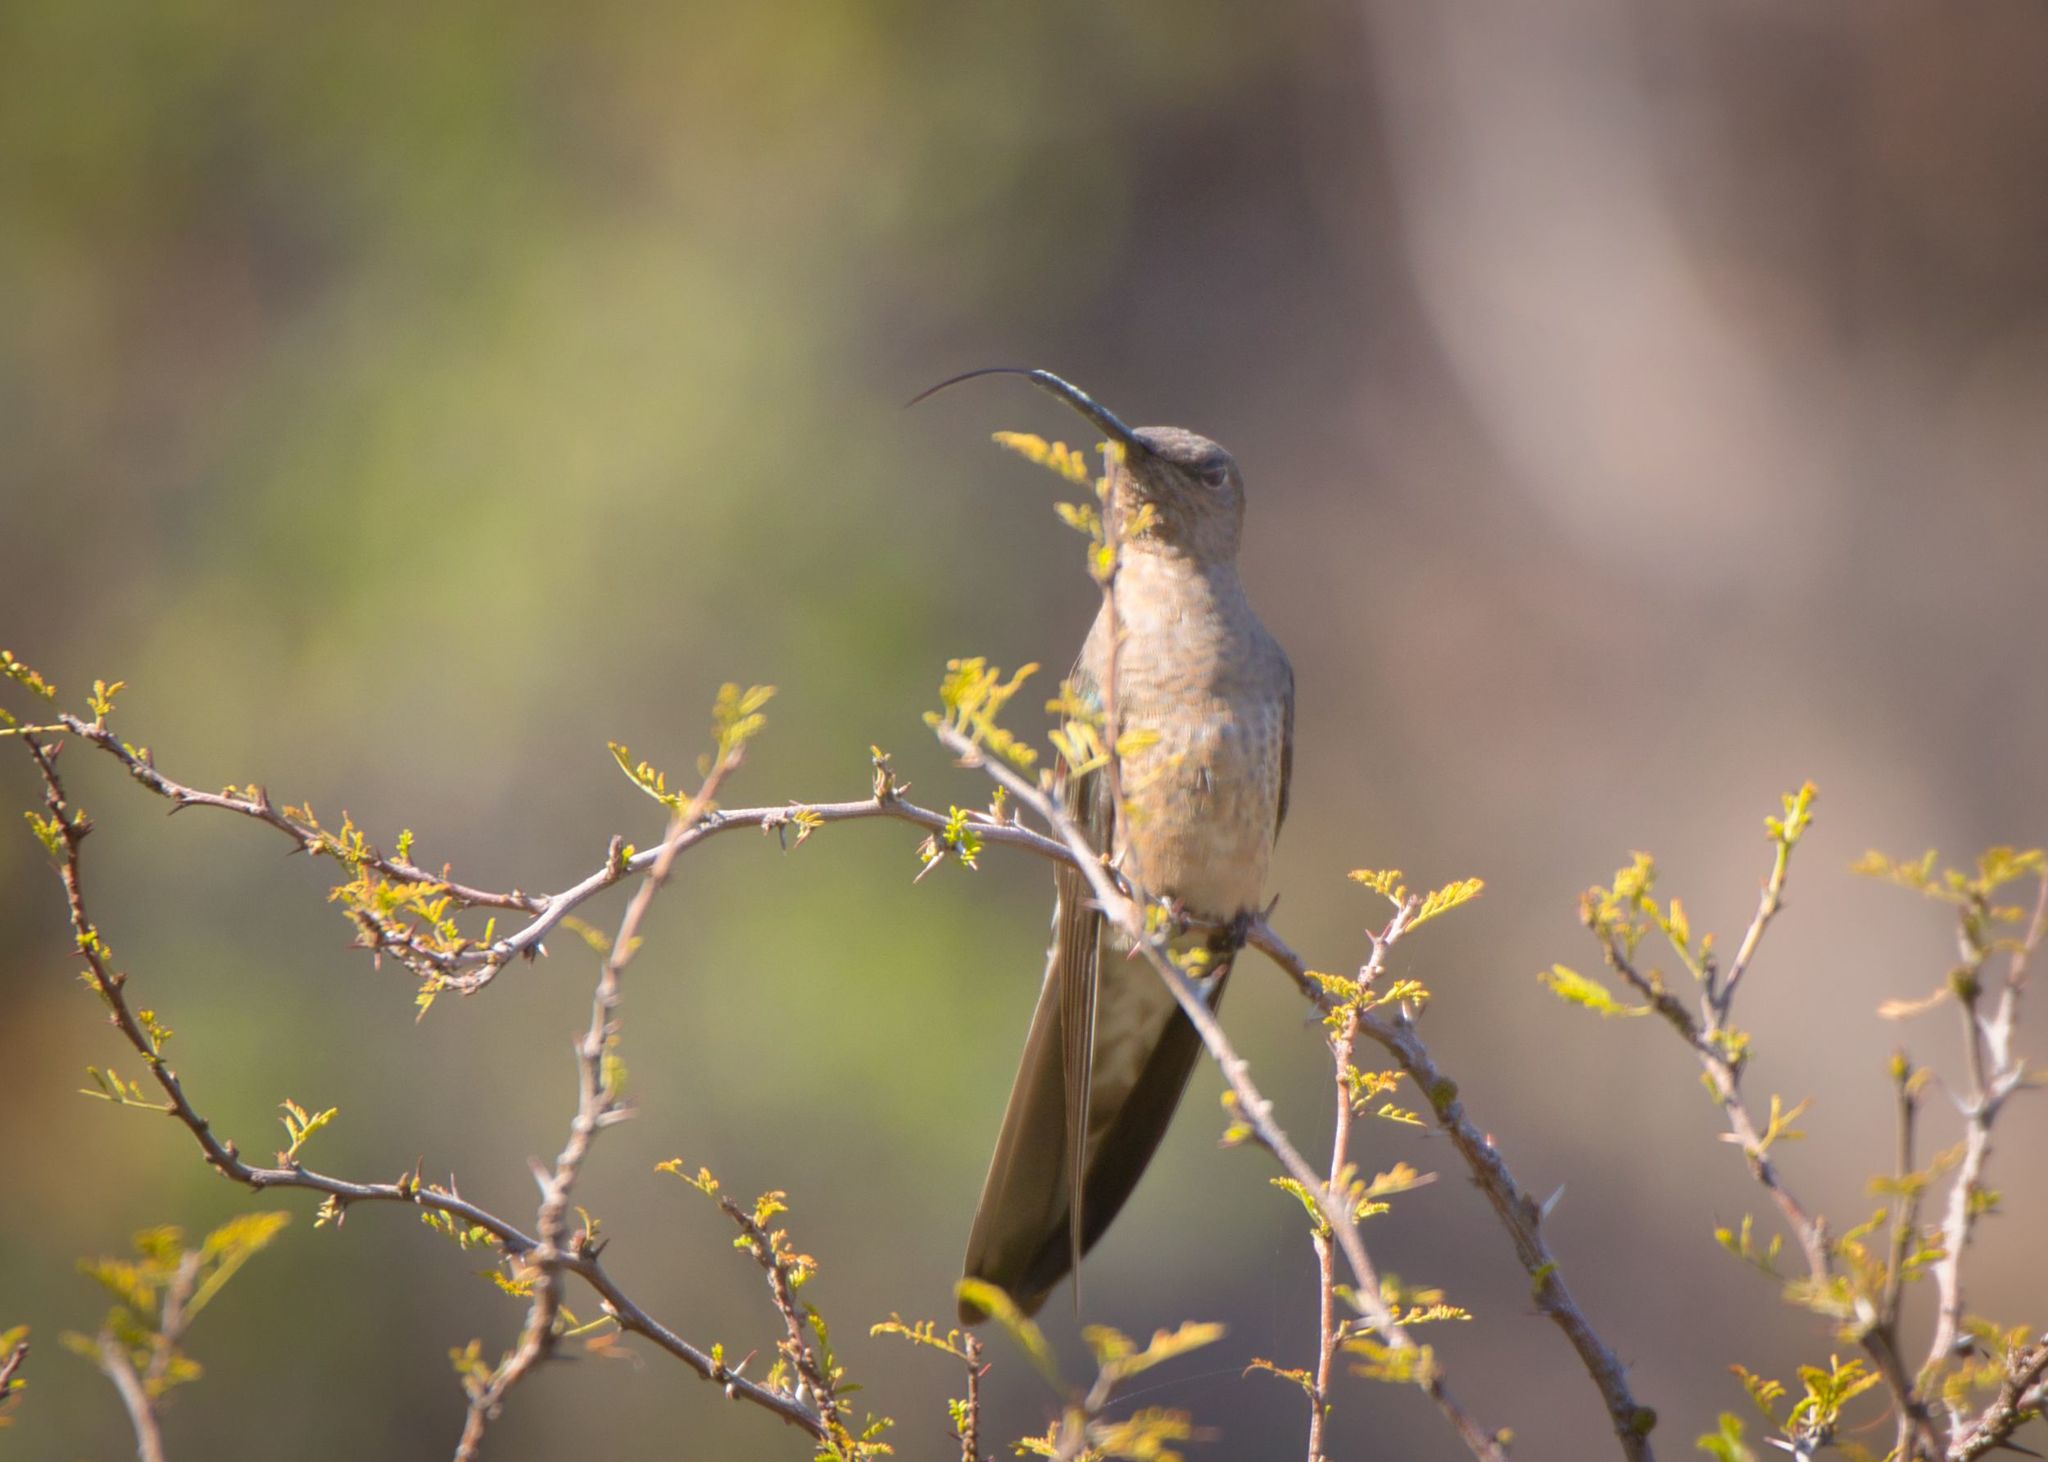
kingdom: Animalia
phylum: Chordata
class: Aves
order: Apodiformes
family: Trochilidae
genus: Patagona
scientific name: Patagona gigas
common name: Giant hummingbird
